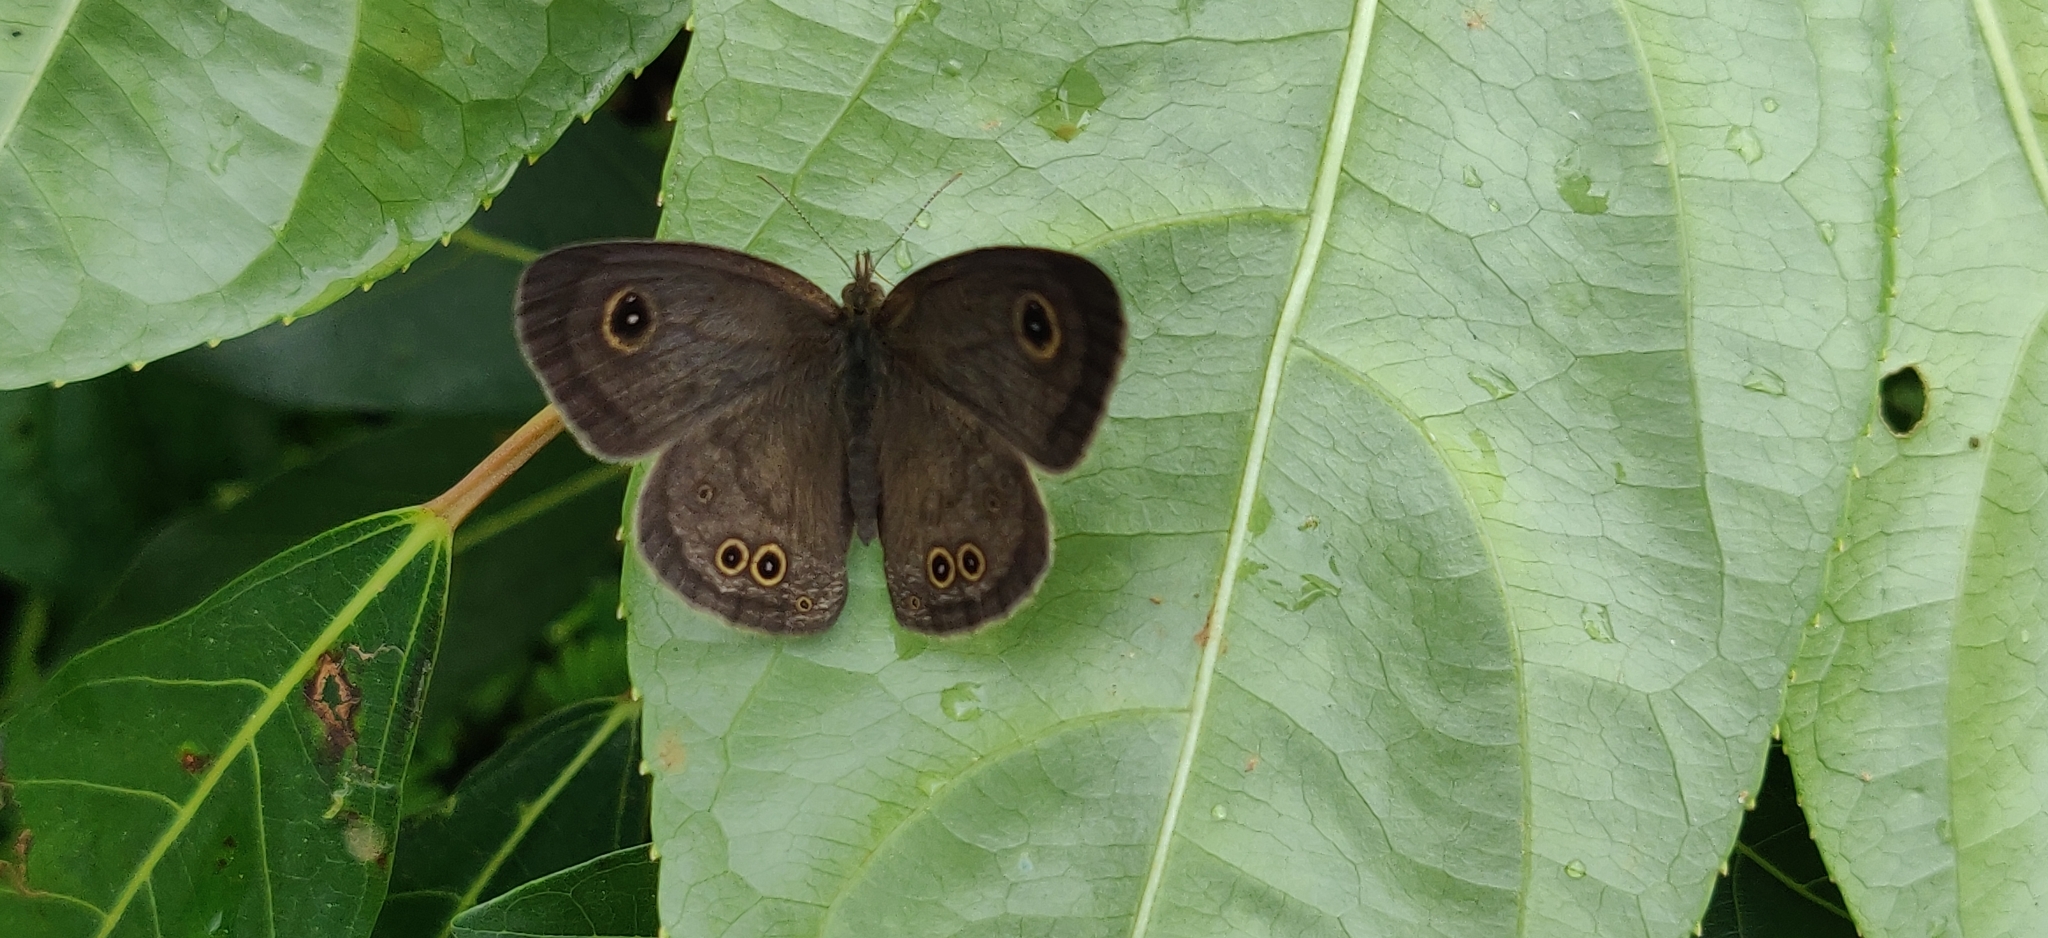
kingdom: Animalia
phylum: Arthropoda
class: Insecta
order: Lepidoptera
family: Nymphalidae
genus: Ypthima
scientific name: Ypthima baldus
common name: Common five-ring
